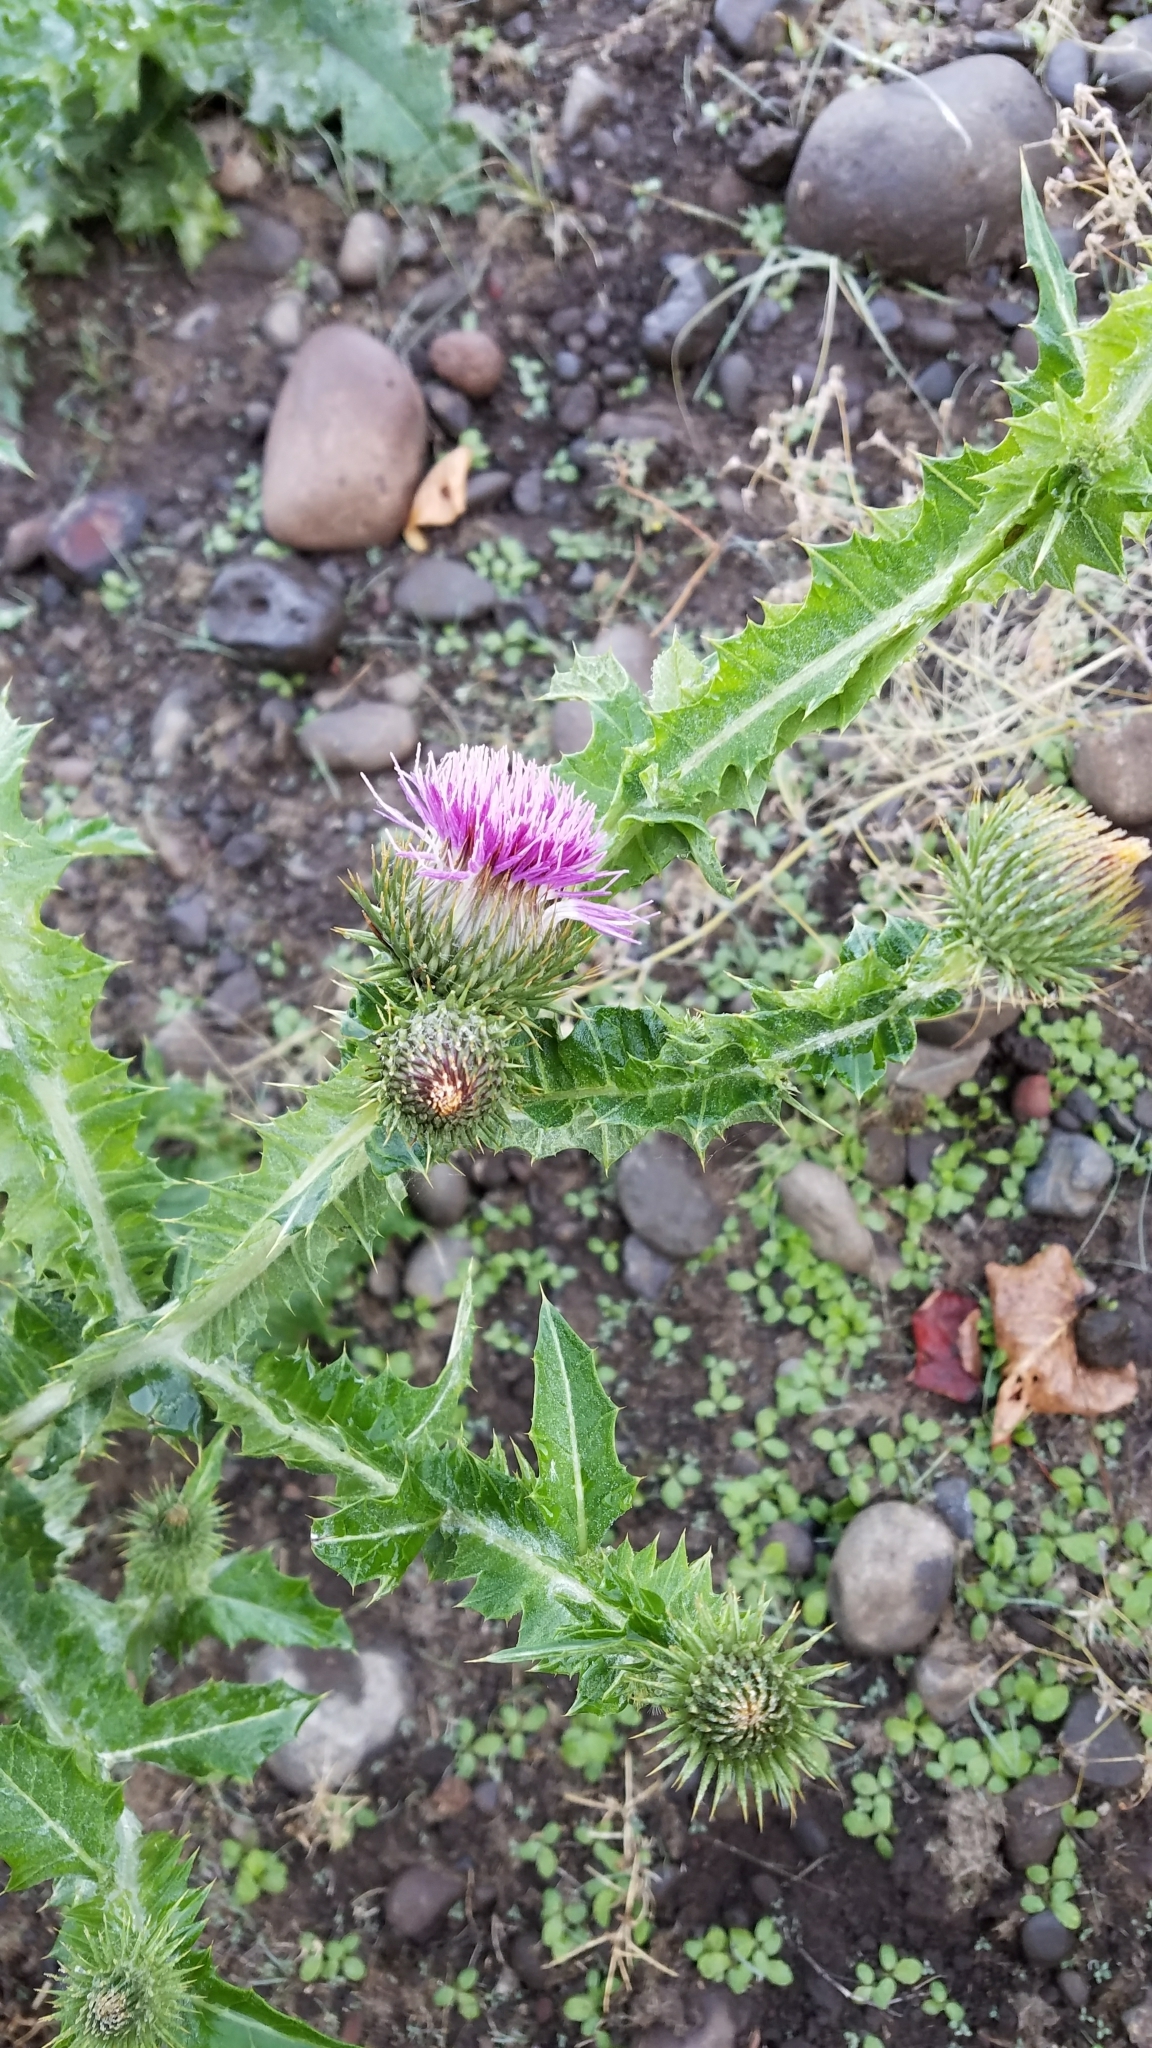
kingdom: Plantae
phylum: Tracheophyta
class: Magnoliopsida
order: Asterales
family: Asteraceae
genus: Onopordum
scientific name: Onopordum acanthium
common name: Scotch thistle
